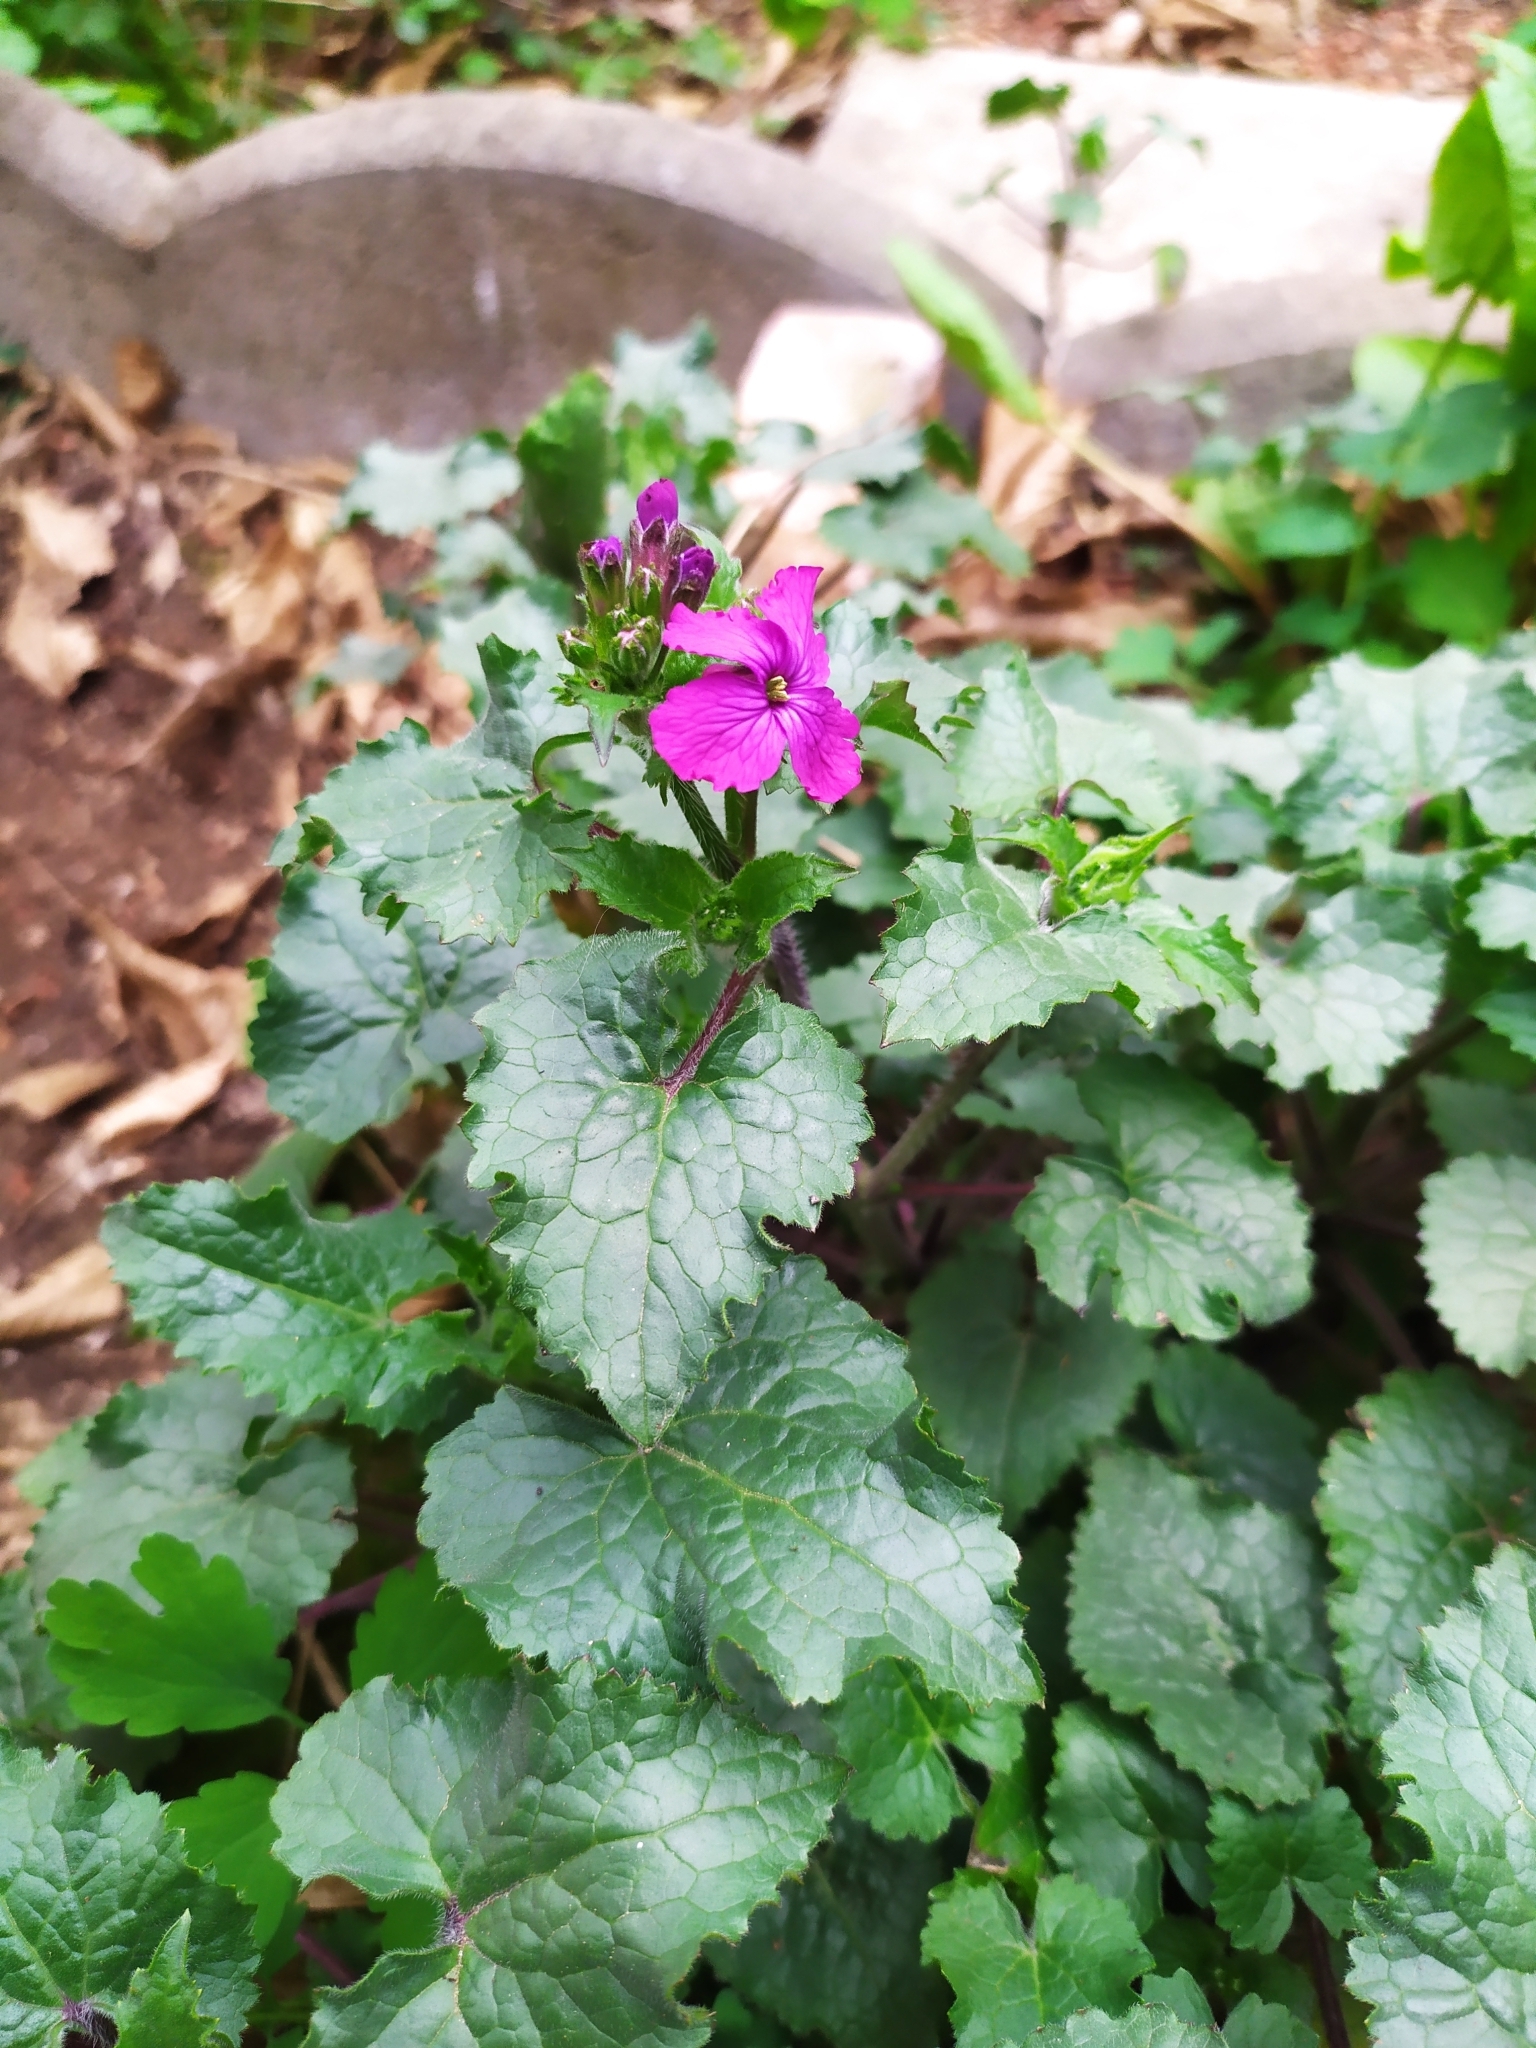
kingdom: Plantae
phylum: Tracheophyta
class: Magnoliopsida
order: Brassicales
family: Brassicaceae
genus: Lunaria
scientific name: Lunaria annua
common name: Honesty
